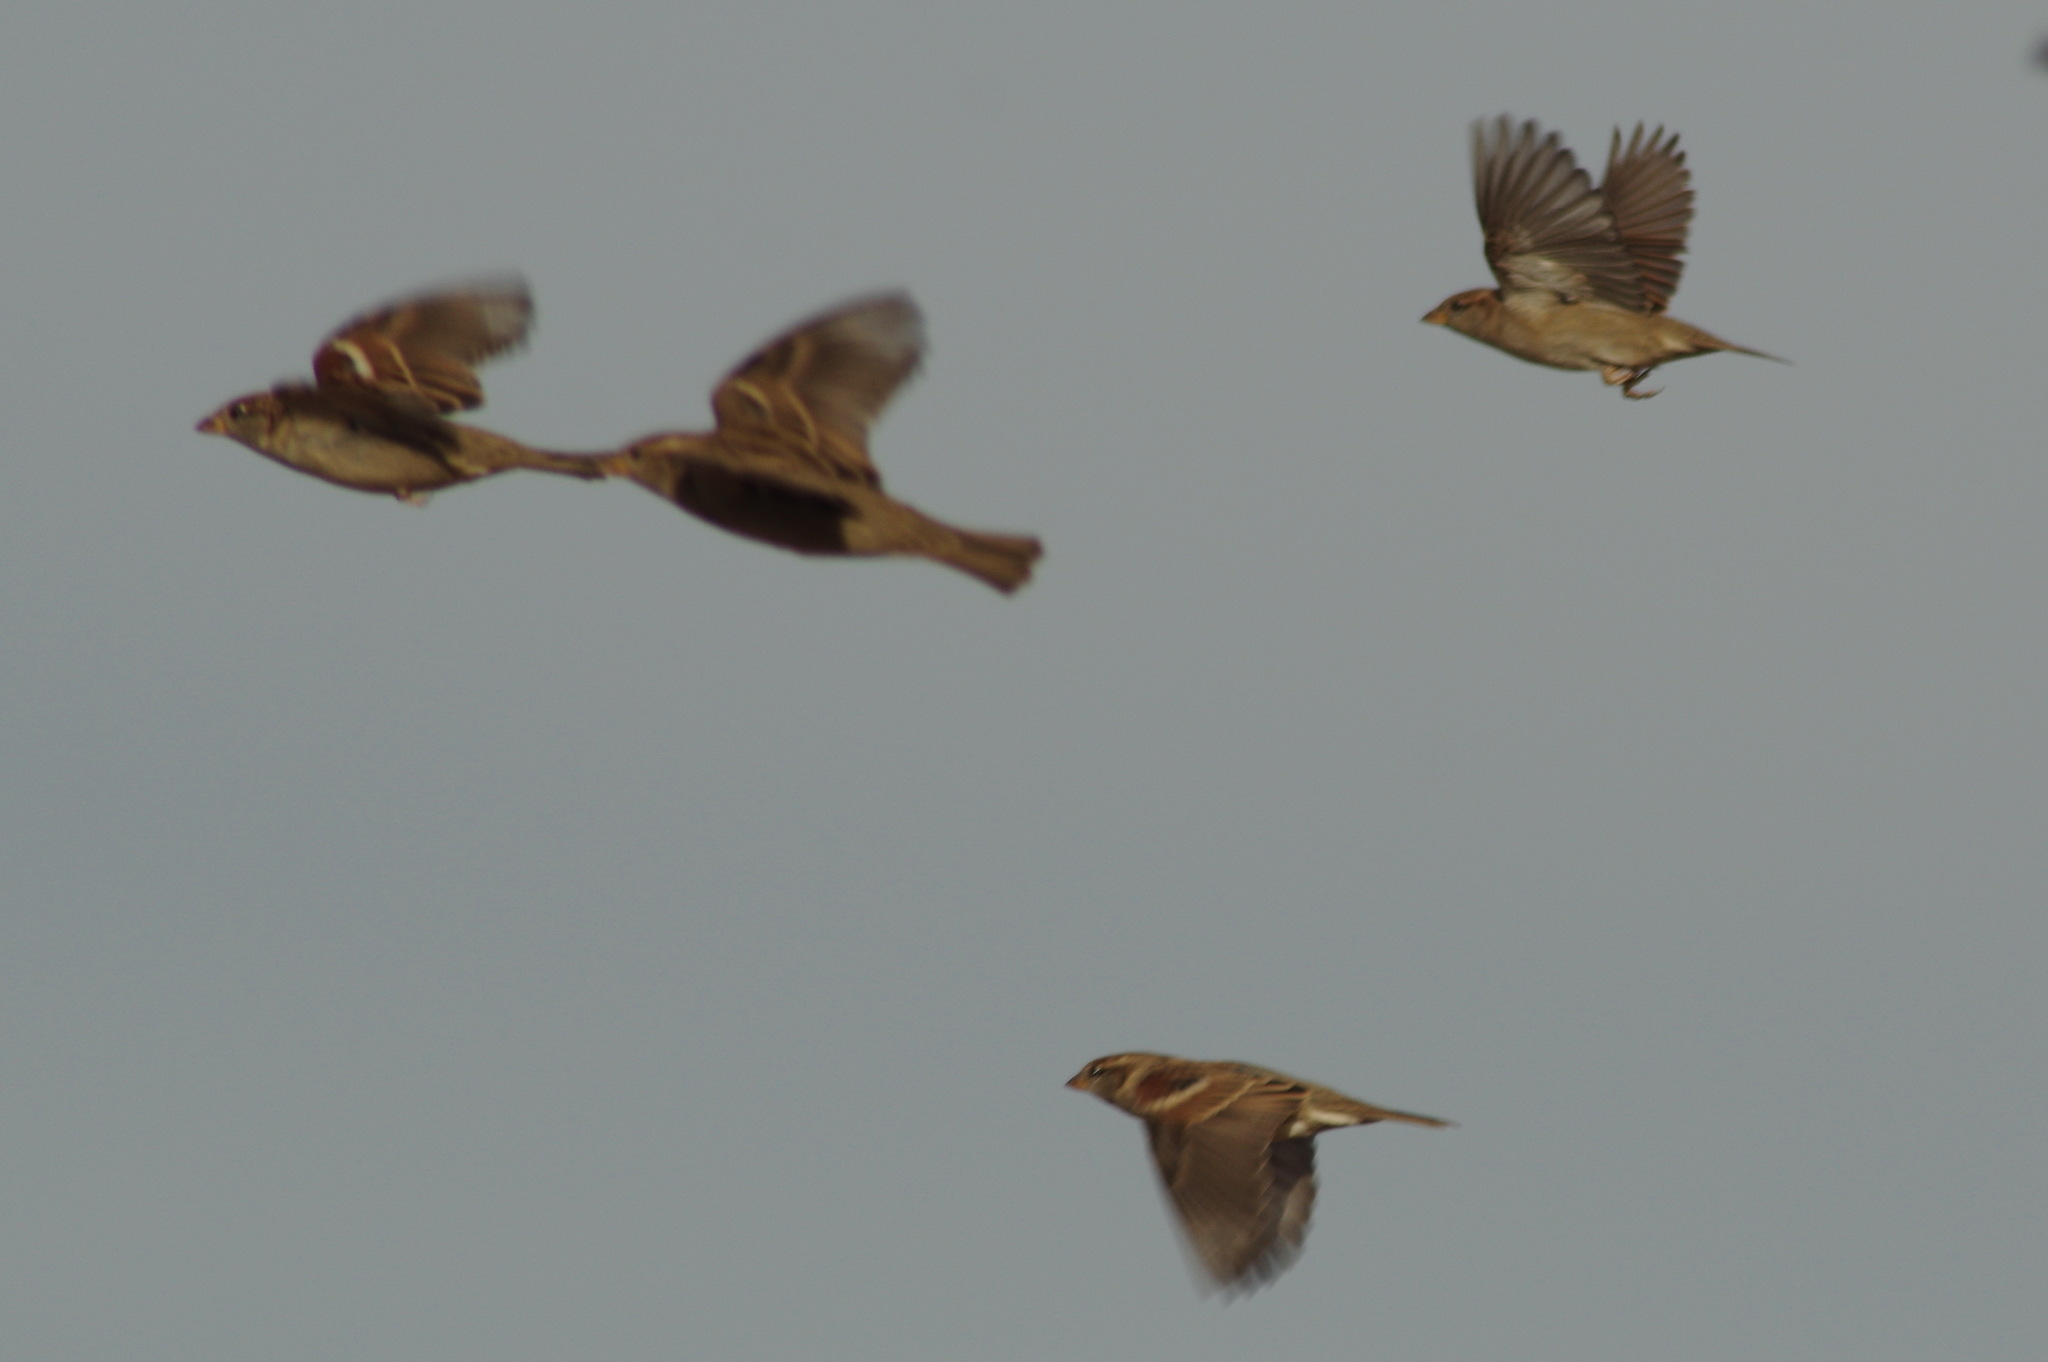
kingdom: Animalia
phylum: Chordata
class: Aves
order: Passeriformes
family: Passeridae
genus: Passer
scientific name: Passer domesticus
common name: House sparrow
